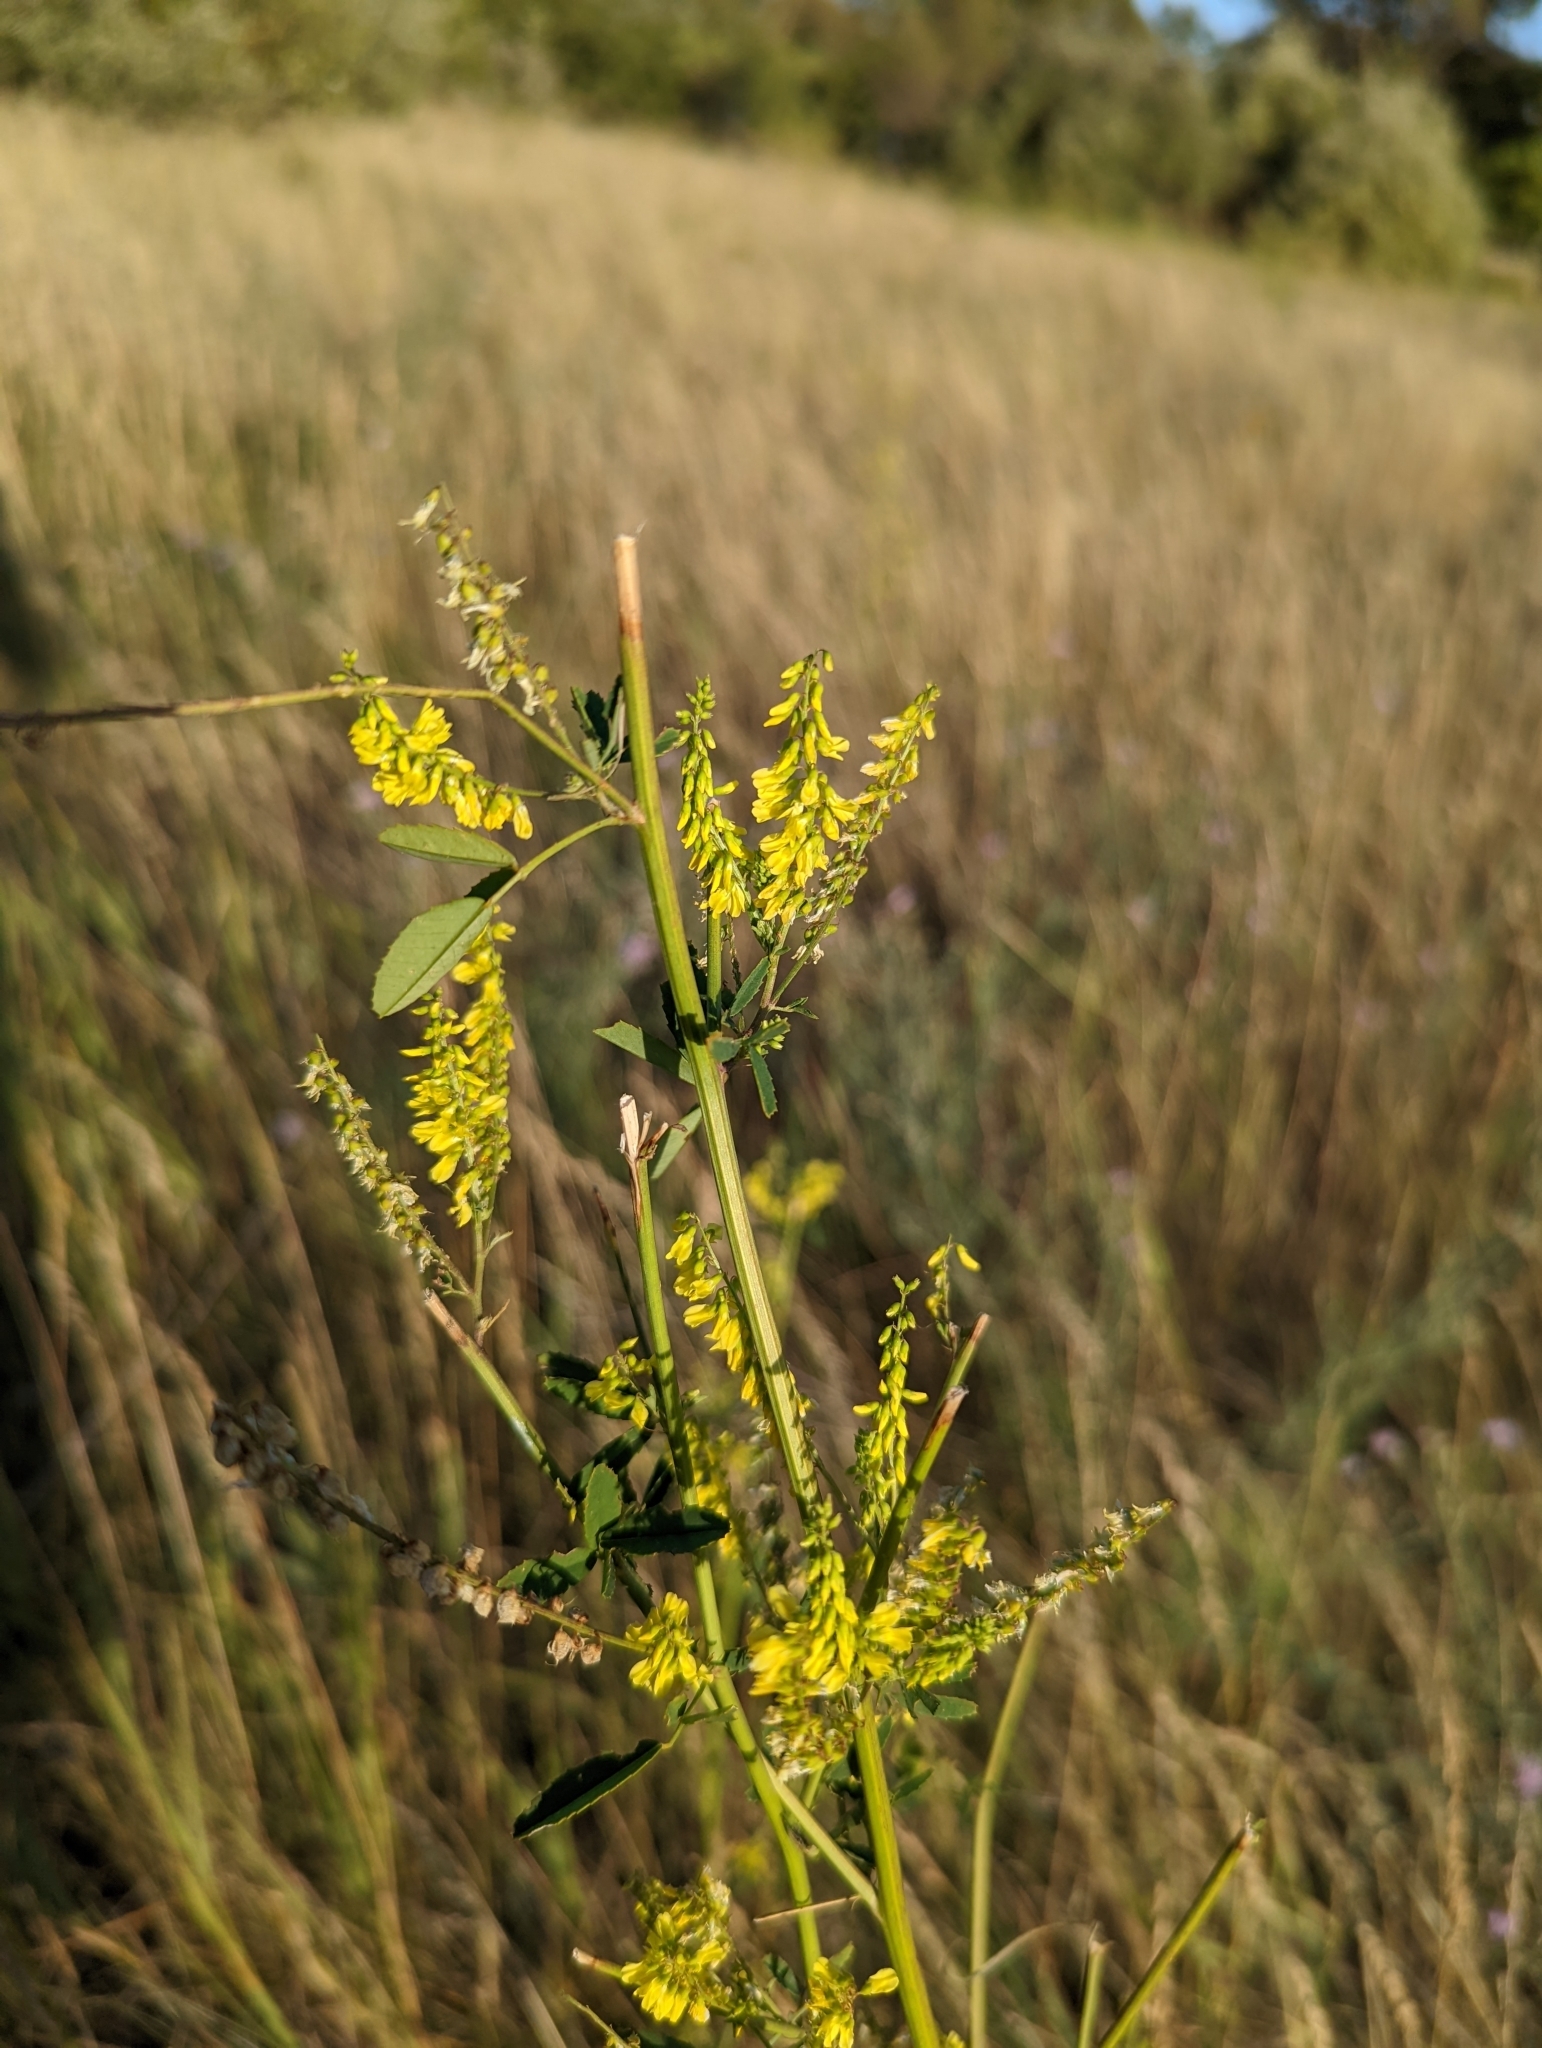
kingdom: Plantae
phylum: Tracheophyta
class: Magnoliopsida
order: Fabales
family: Fabaceae
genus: Melilotus
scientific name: Melilotus officinalis
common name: Sweetclover
